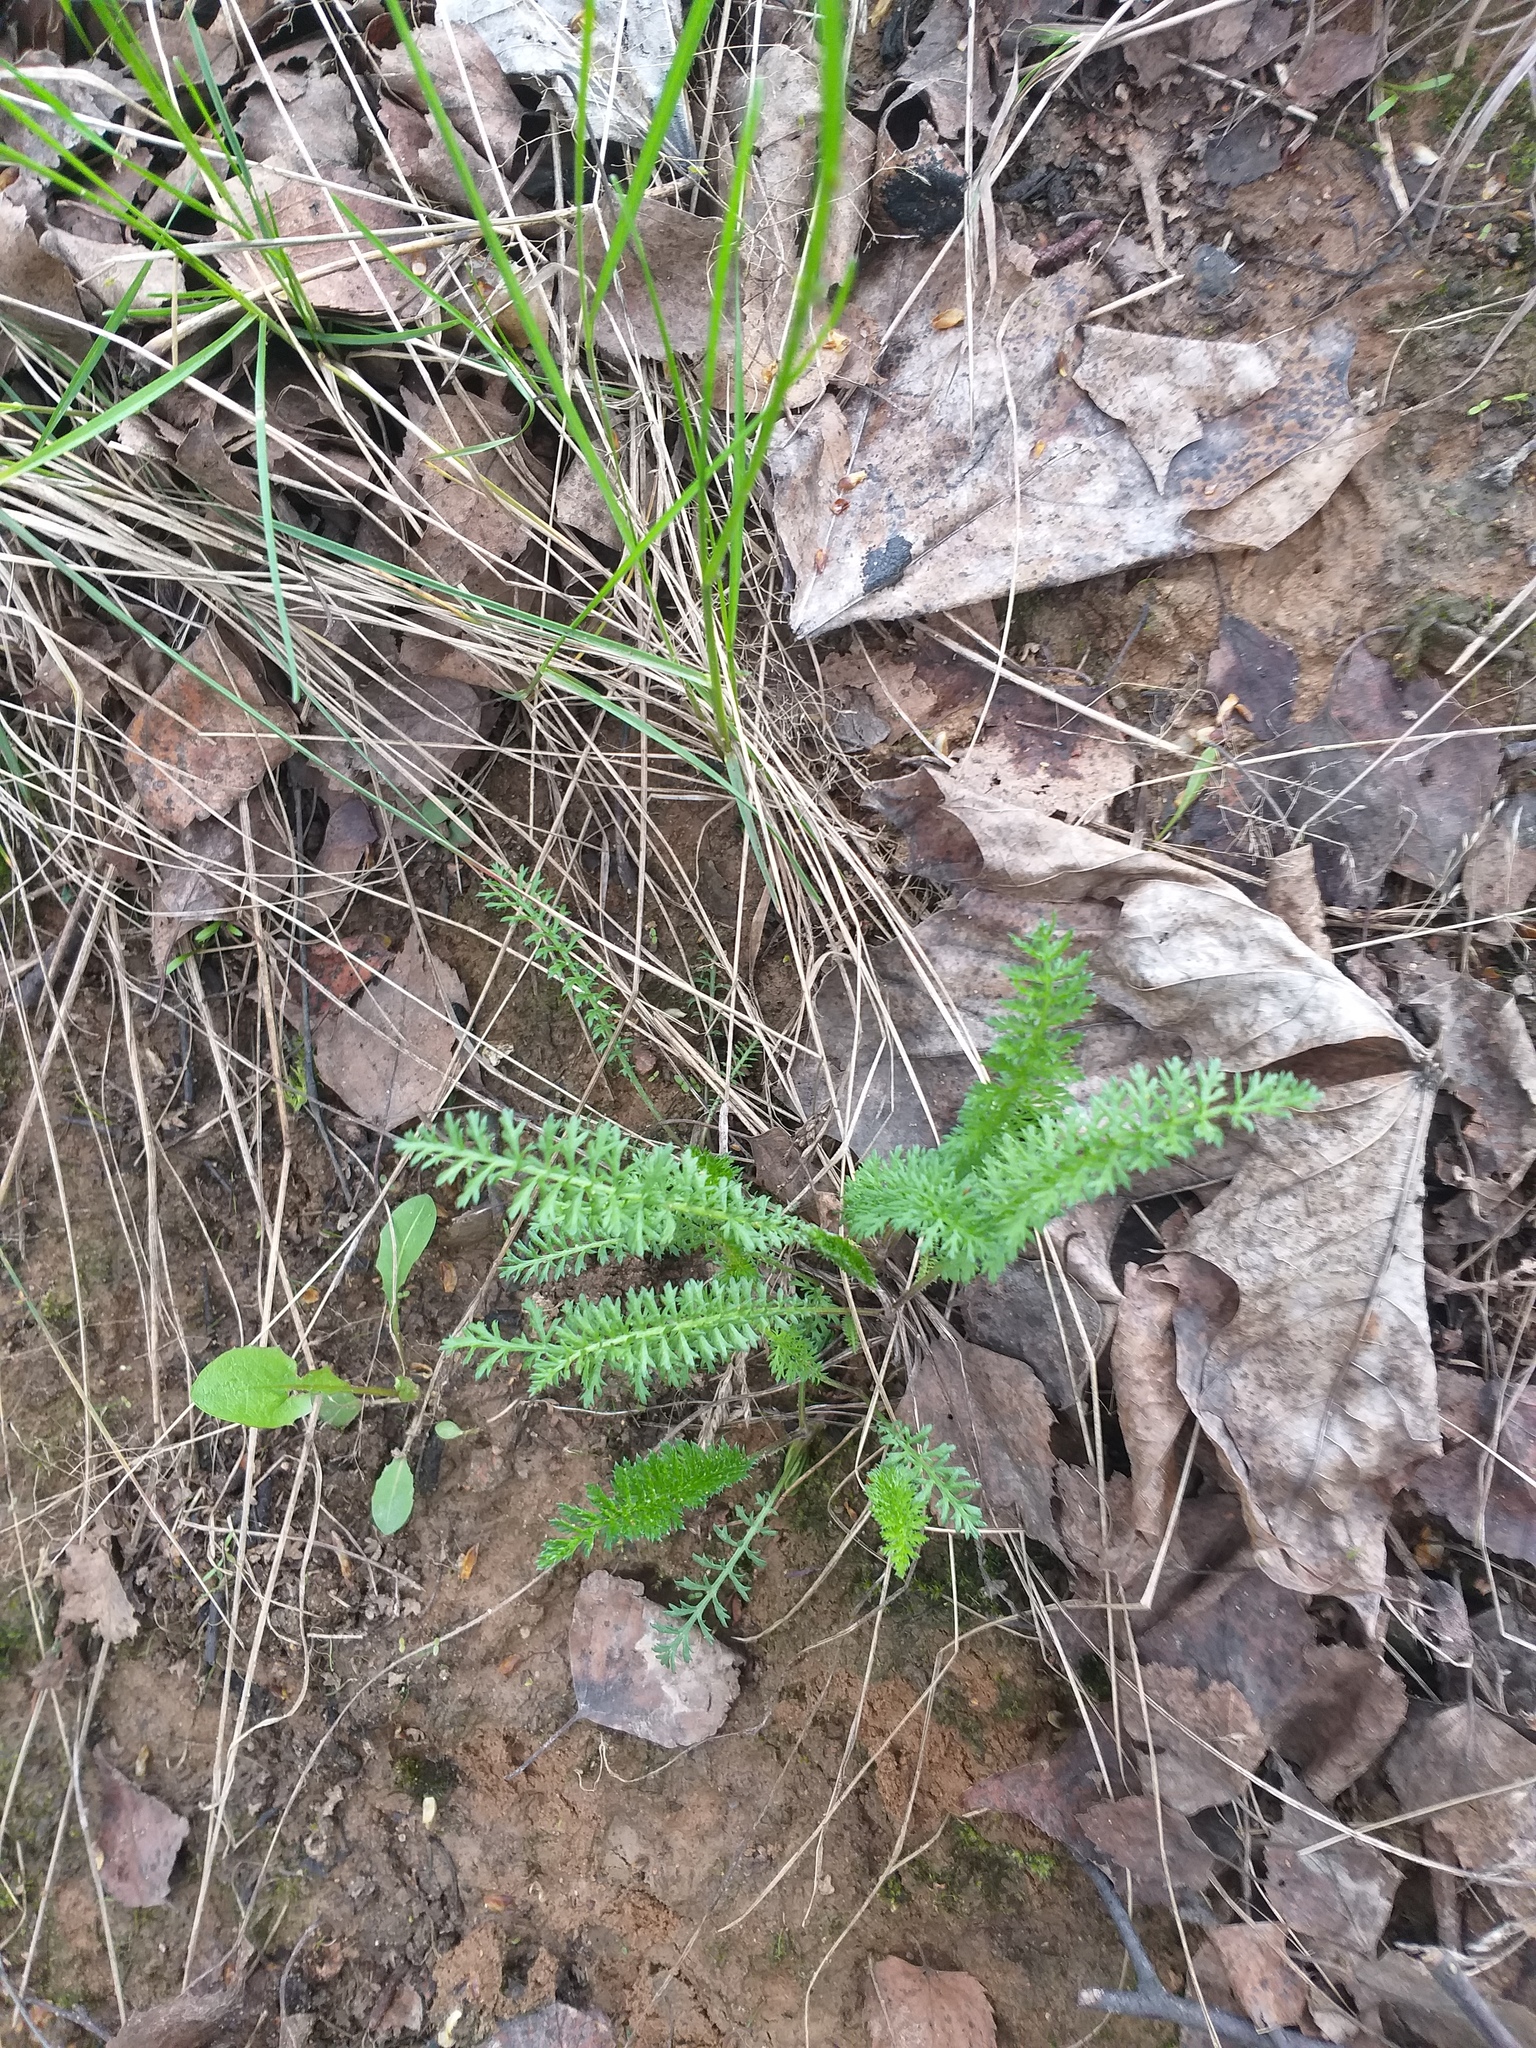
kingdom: Plantae
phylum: Tracheophyta
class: Magnoliopsida
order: Asterales
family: Asteraceae
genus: Achillea
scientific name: Achillea millefolium
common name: Yarrow
